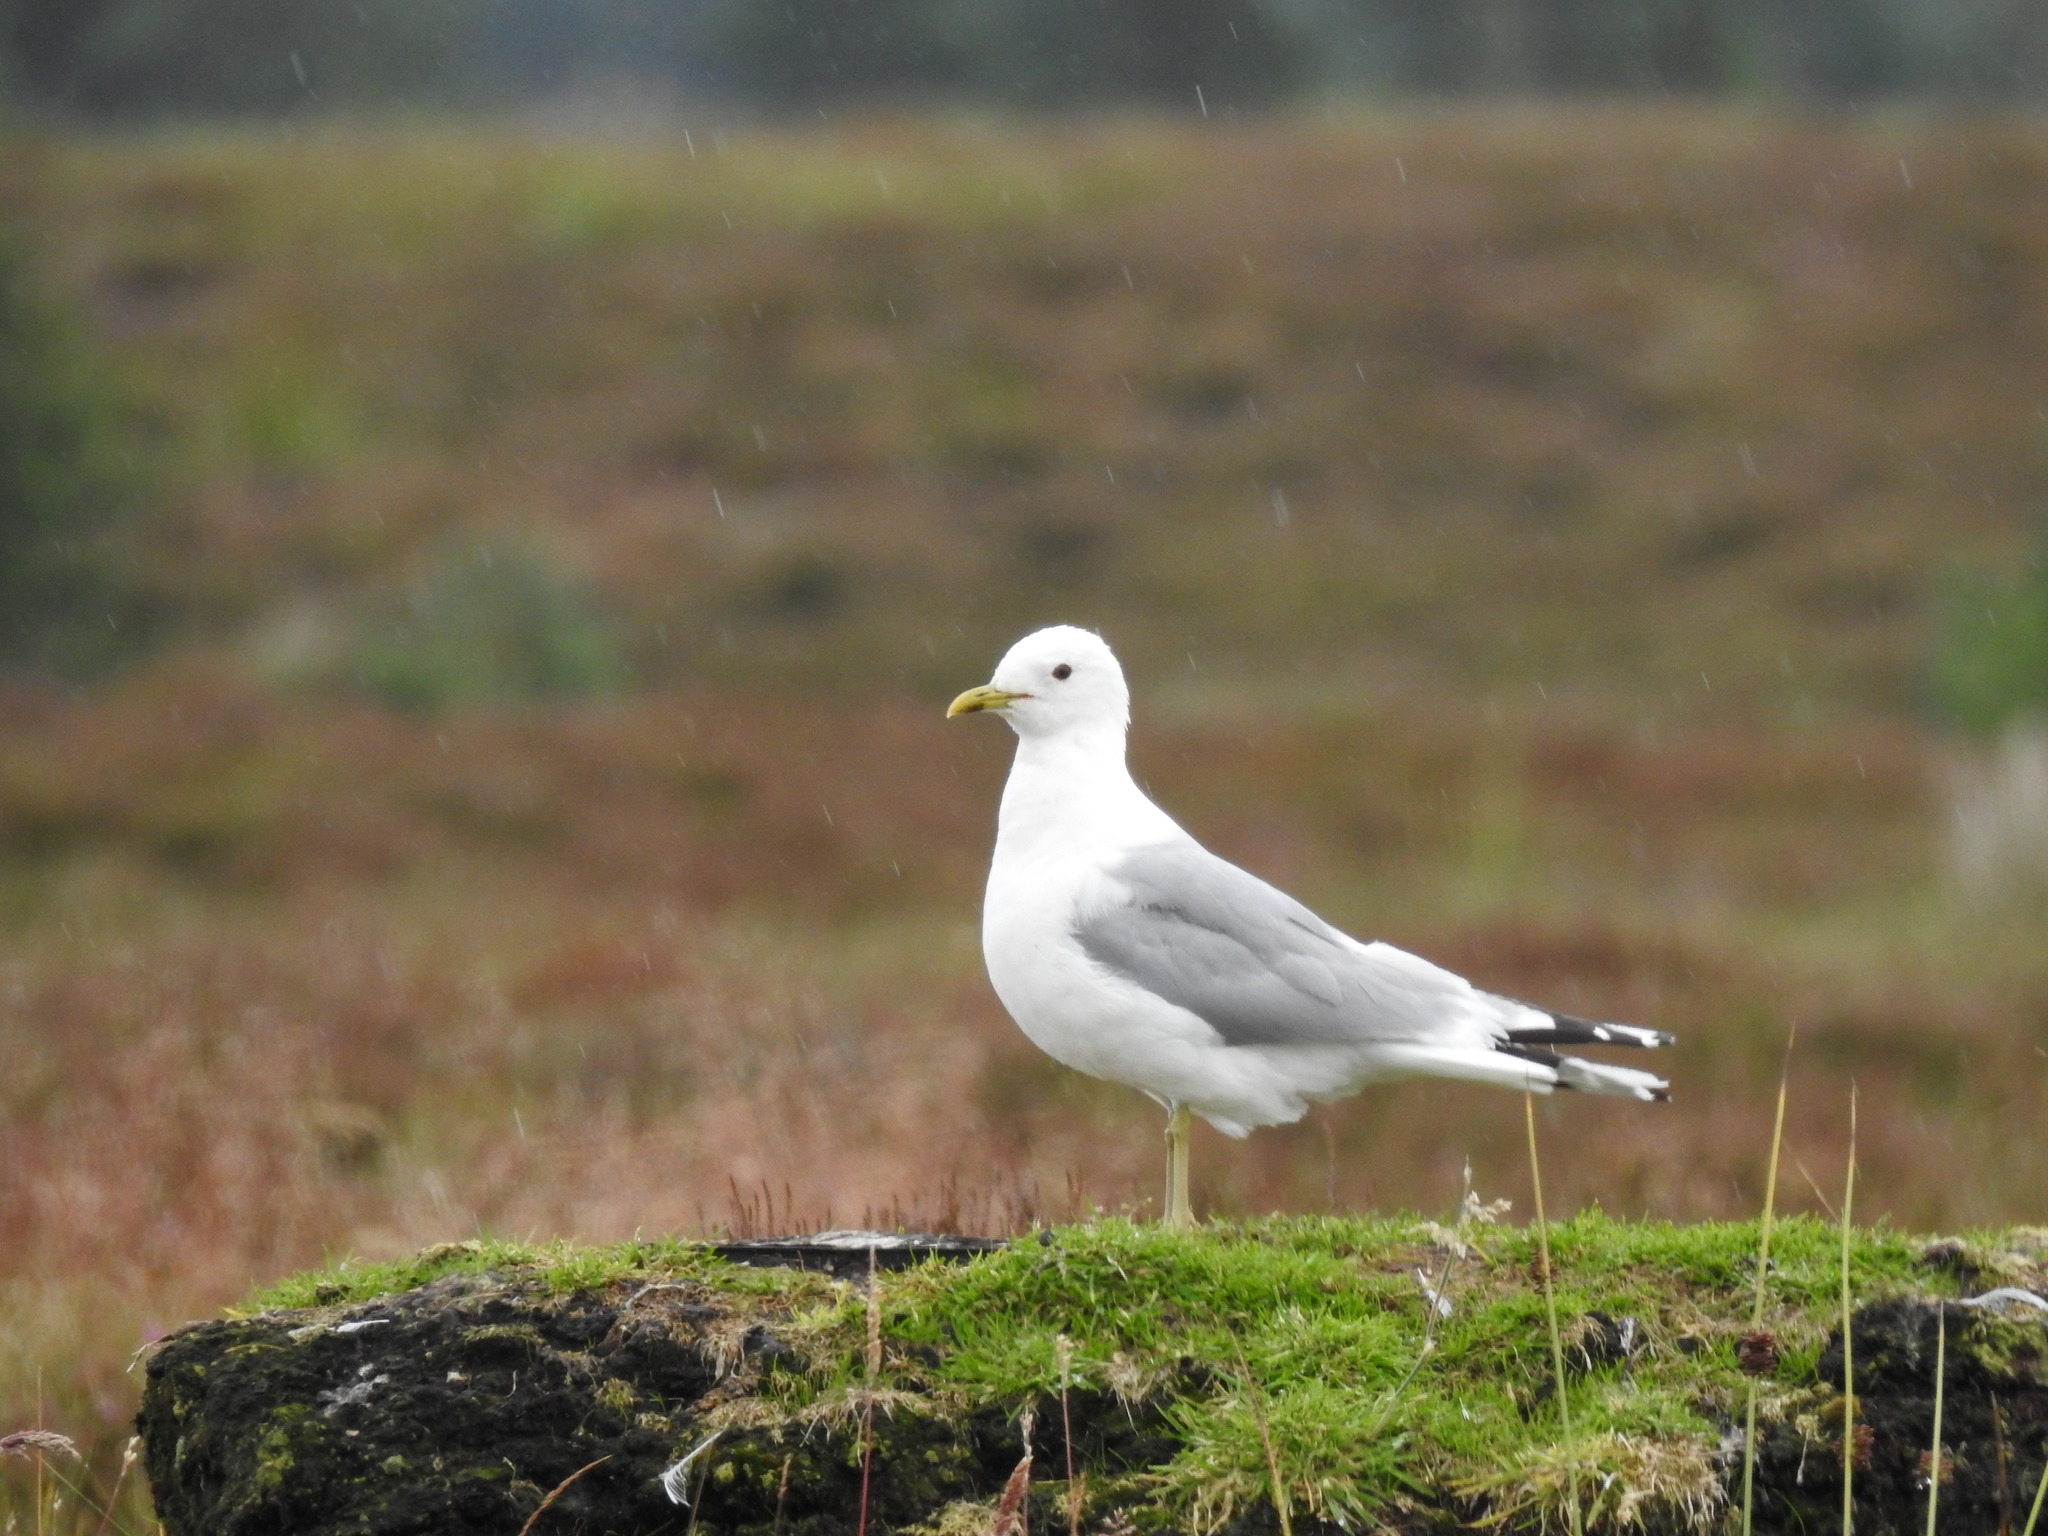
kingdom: Animalia
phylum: Chordata
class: Aves
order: Charadriiformes
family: Laridae
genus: Larus
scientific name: Larus canus
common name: Mew gull
